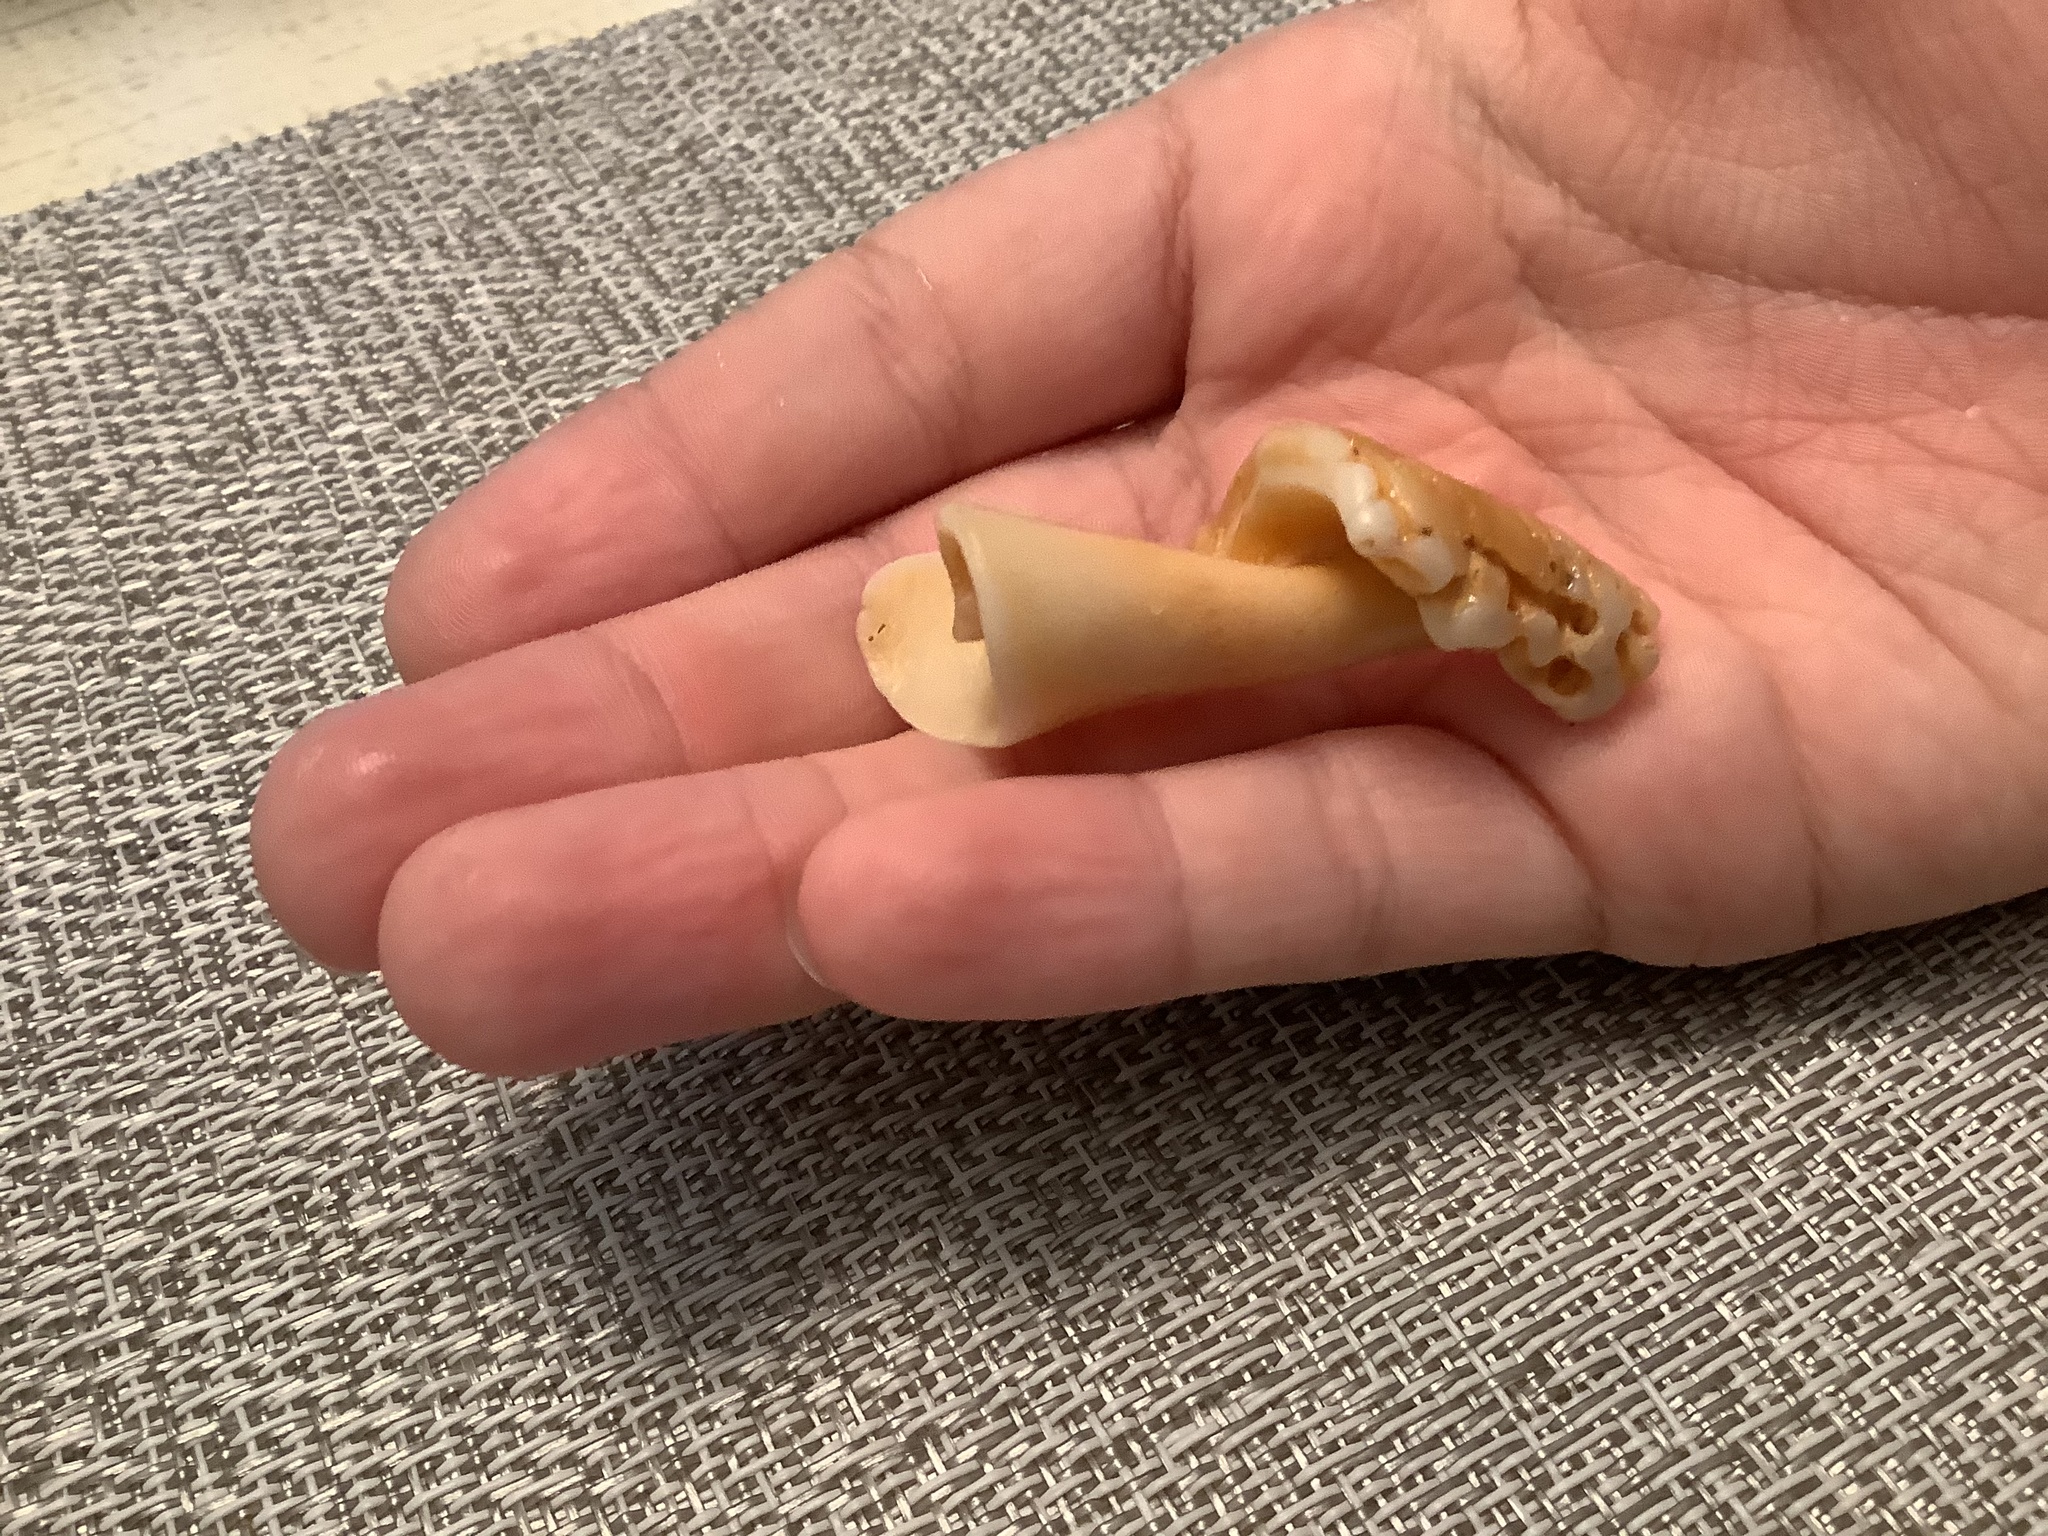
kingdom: Animalia
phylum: Mollusca
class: Gastropoda
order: Littorinimorpha
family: Strombidae
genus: Strombus
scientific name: Strombus alatus
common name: Florida fighting conch
